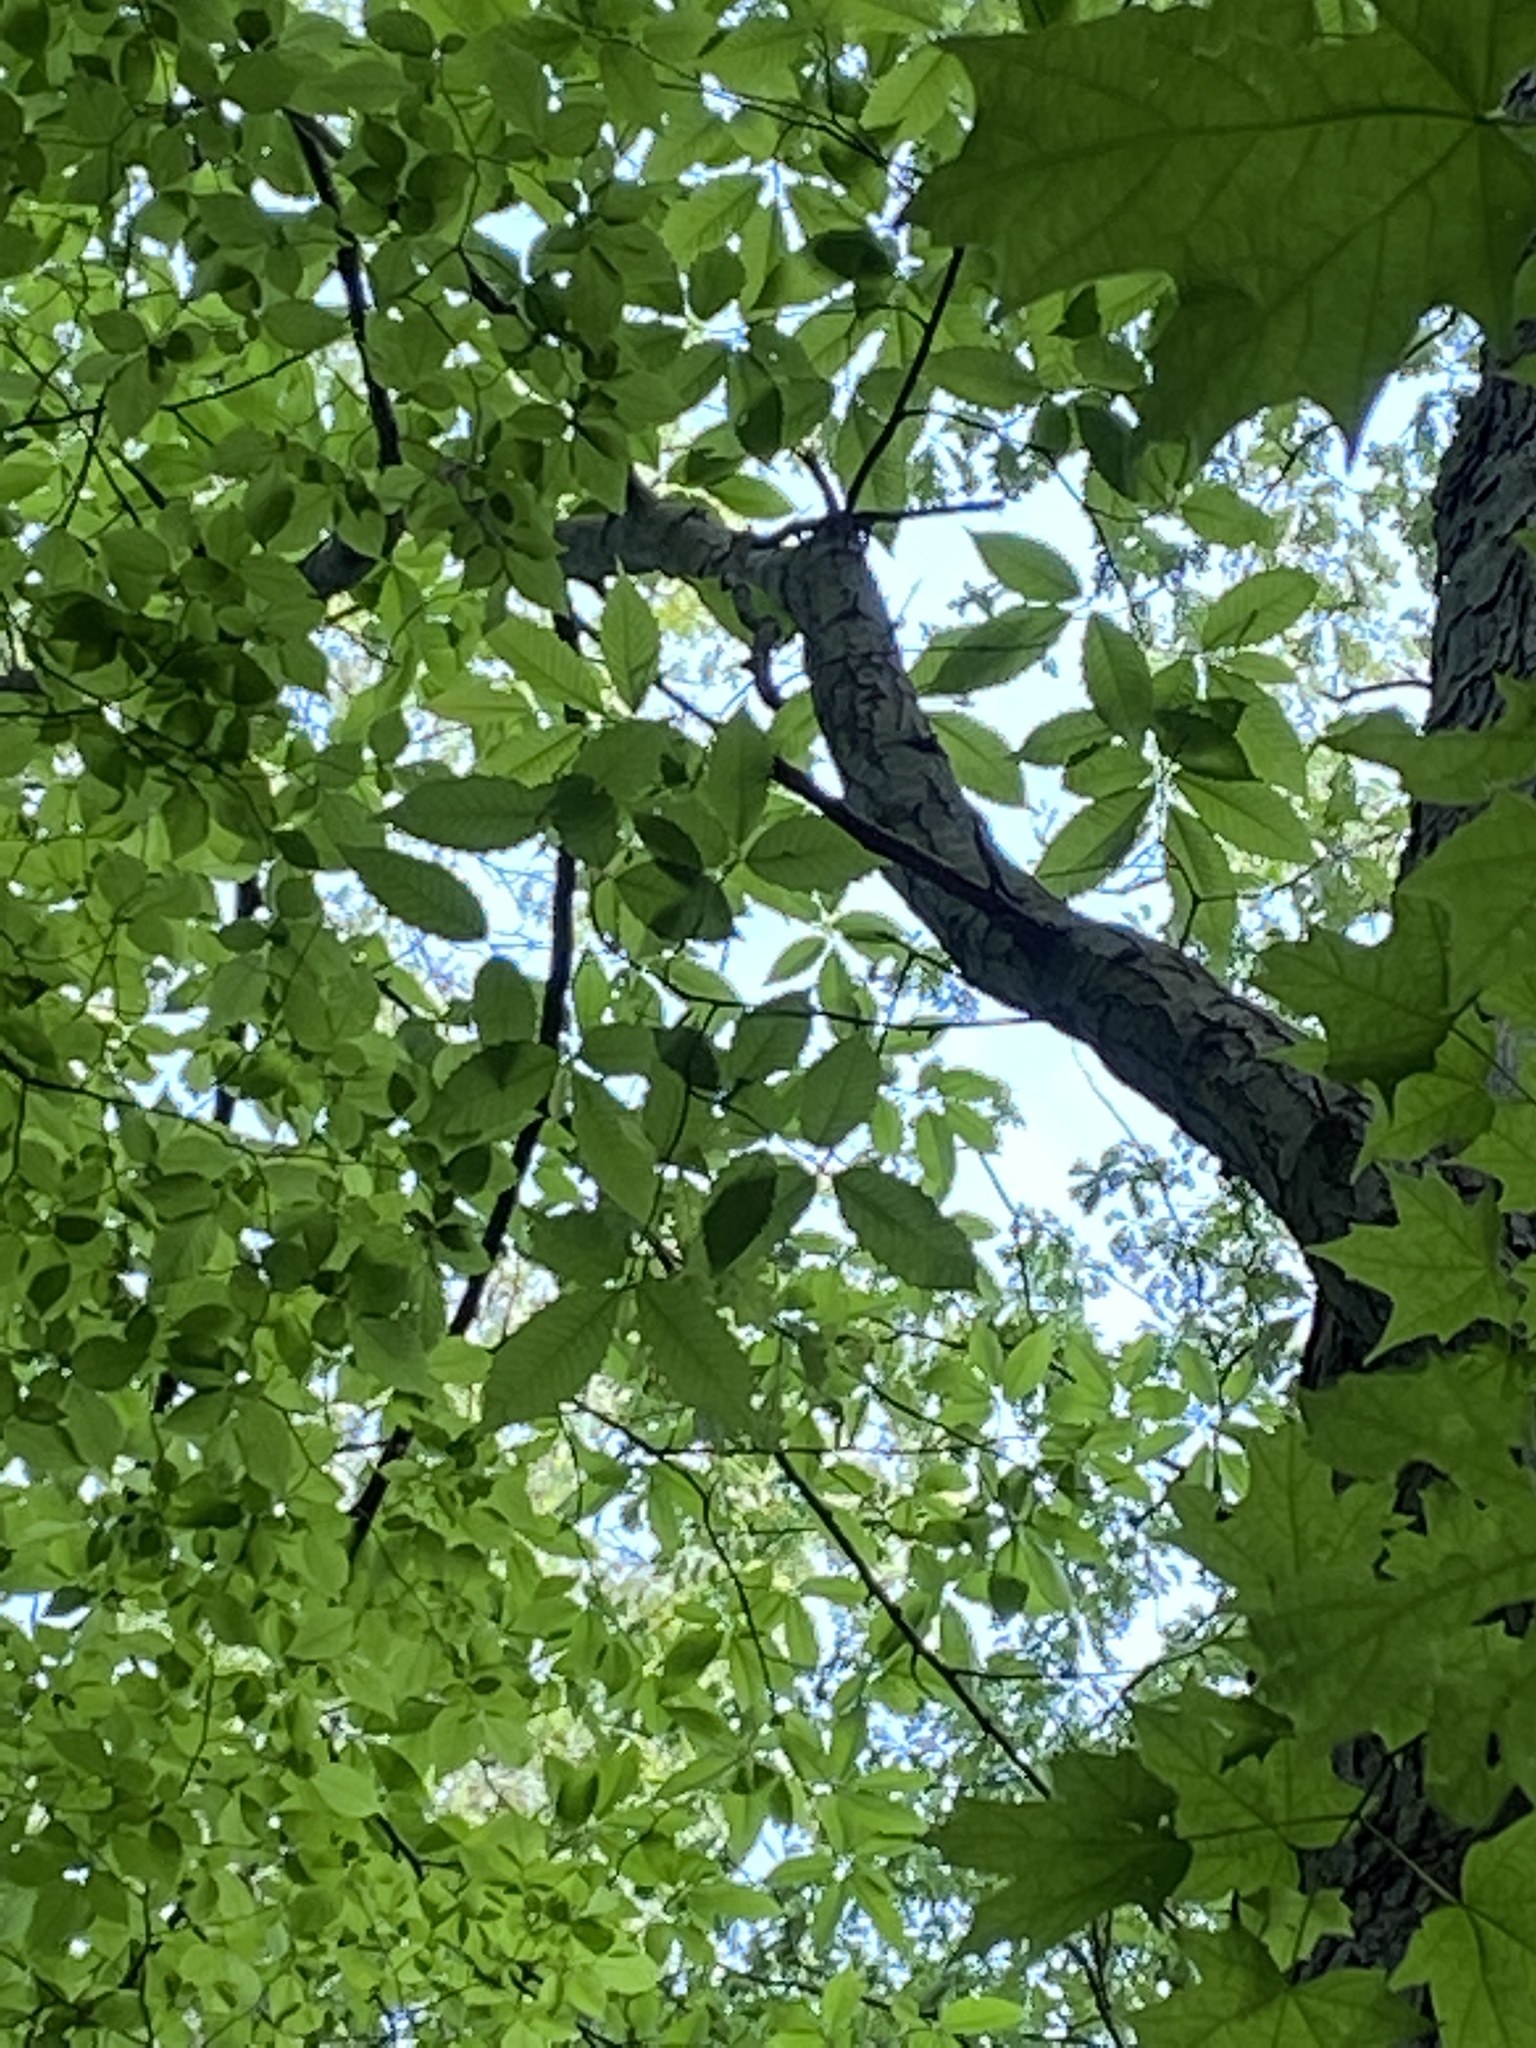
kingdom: Plantae
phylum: Tracheophyta
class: Magnoliopsida
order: Fagales
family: Fagaceae
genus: Castanea
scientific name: Castanea dentata
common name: American chestnut
